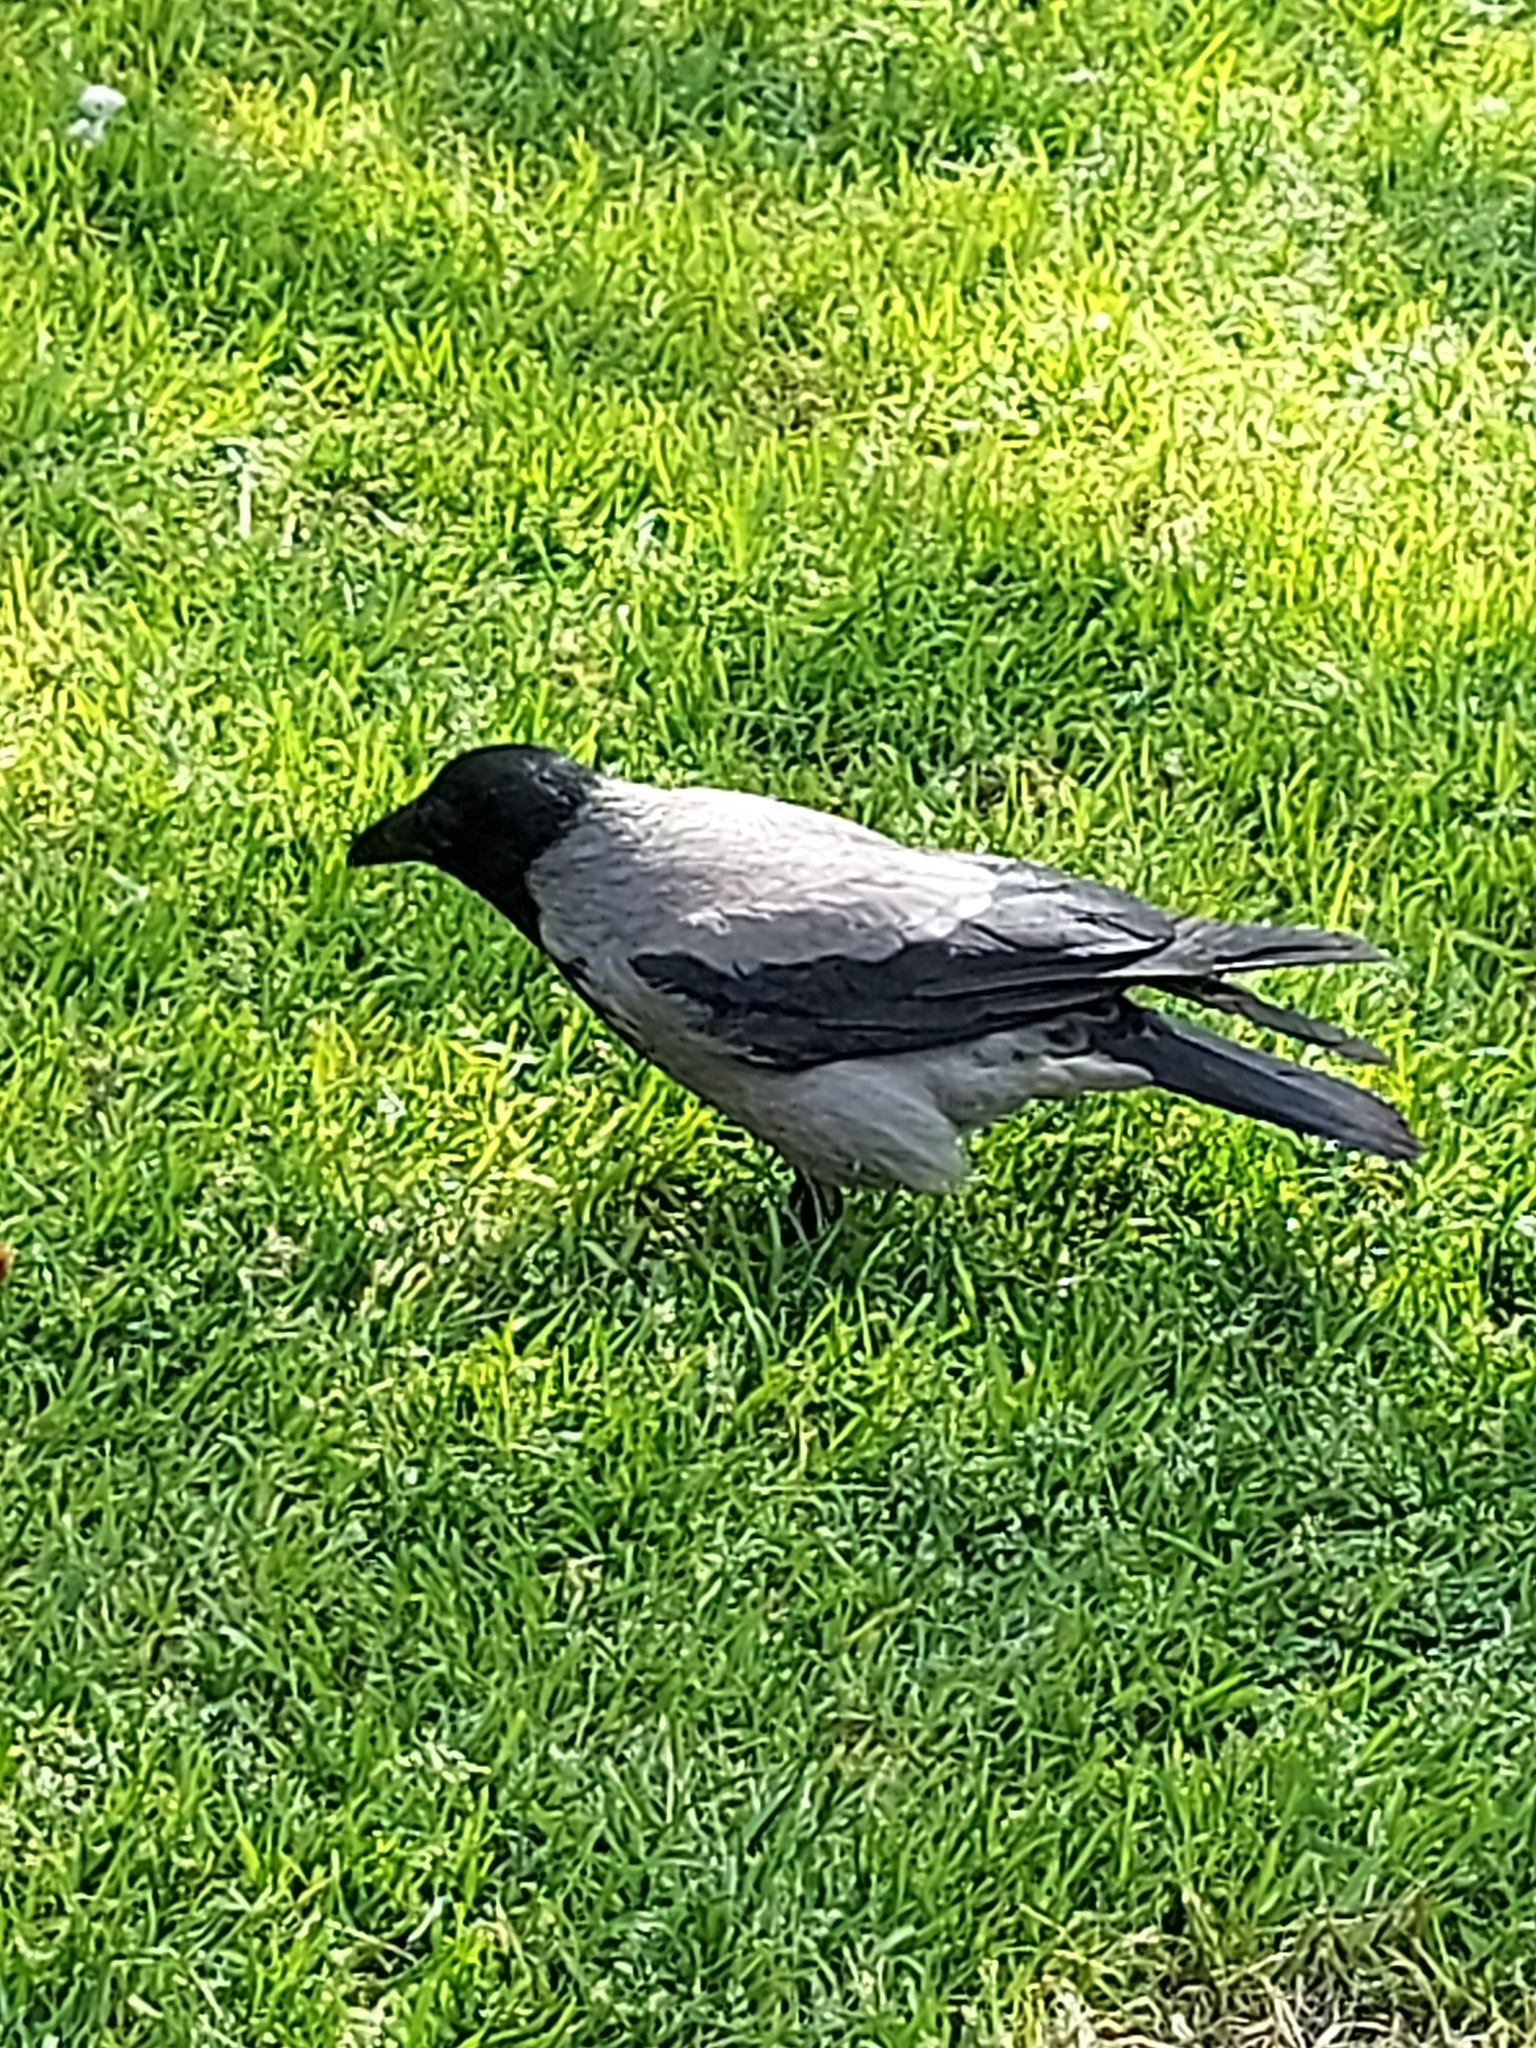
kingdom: Animalia
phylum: Chordata
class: Aves
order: Passeriformes
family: Corvidae
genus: Corvus
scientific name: Corvus cornix
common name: Hooded crow
